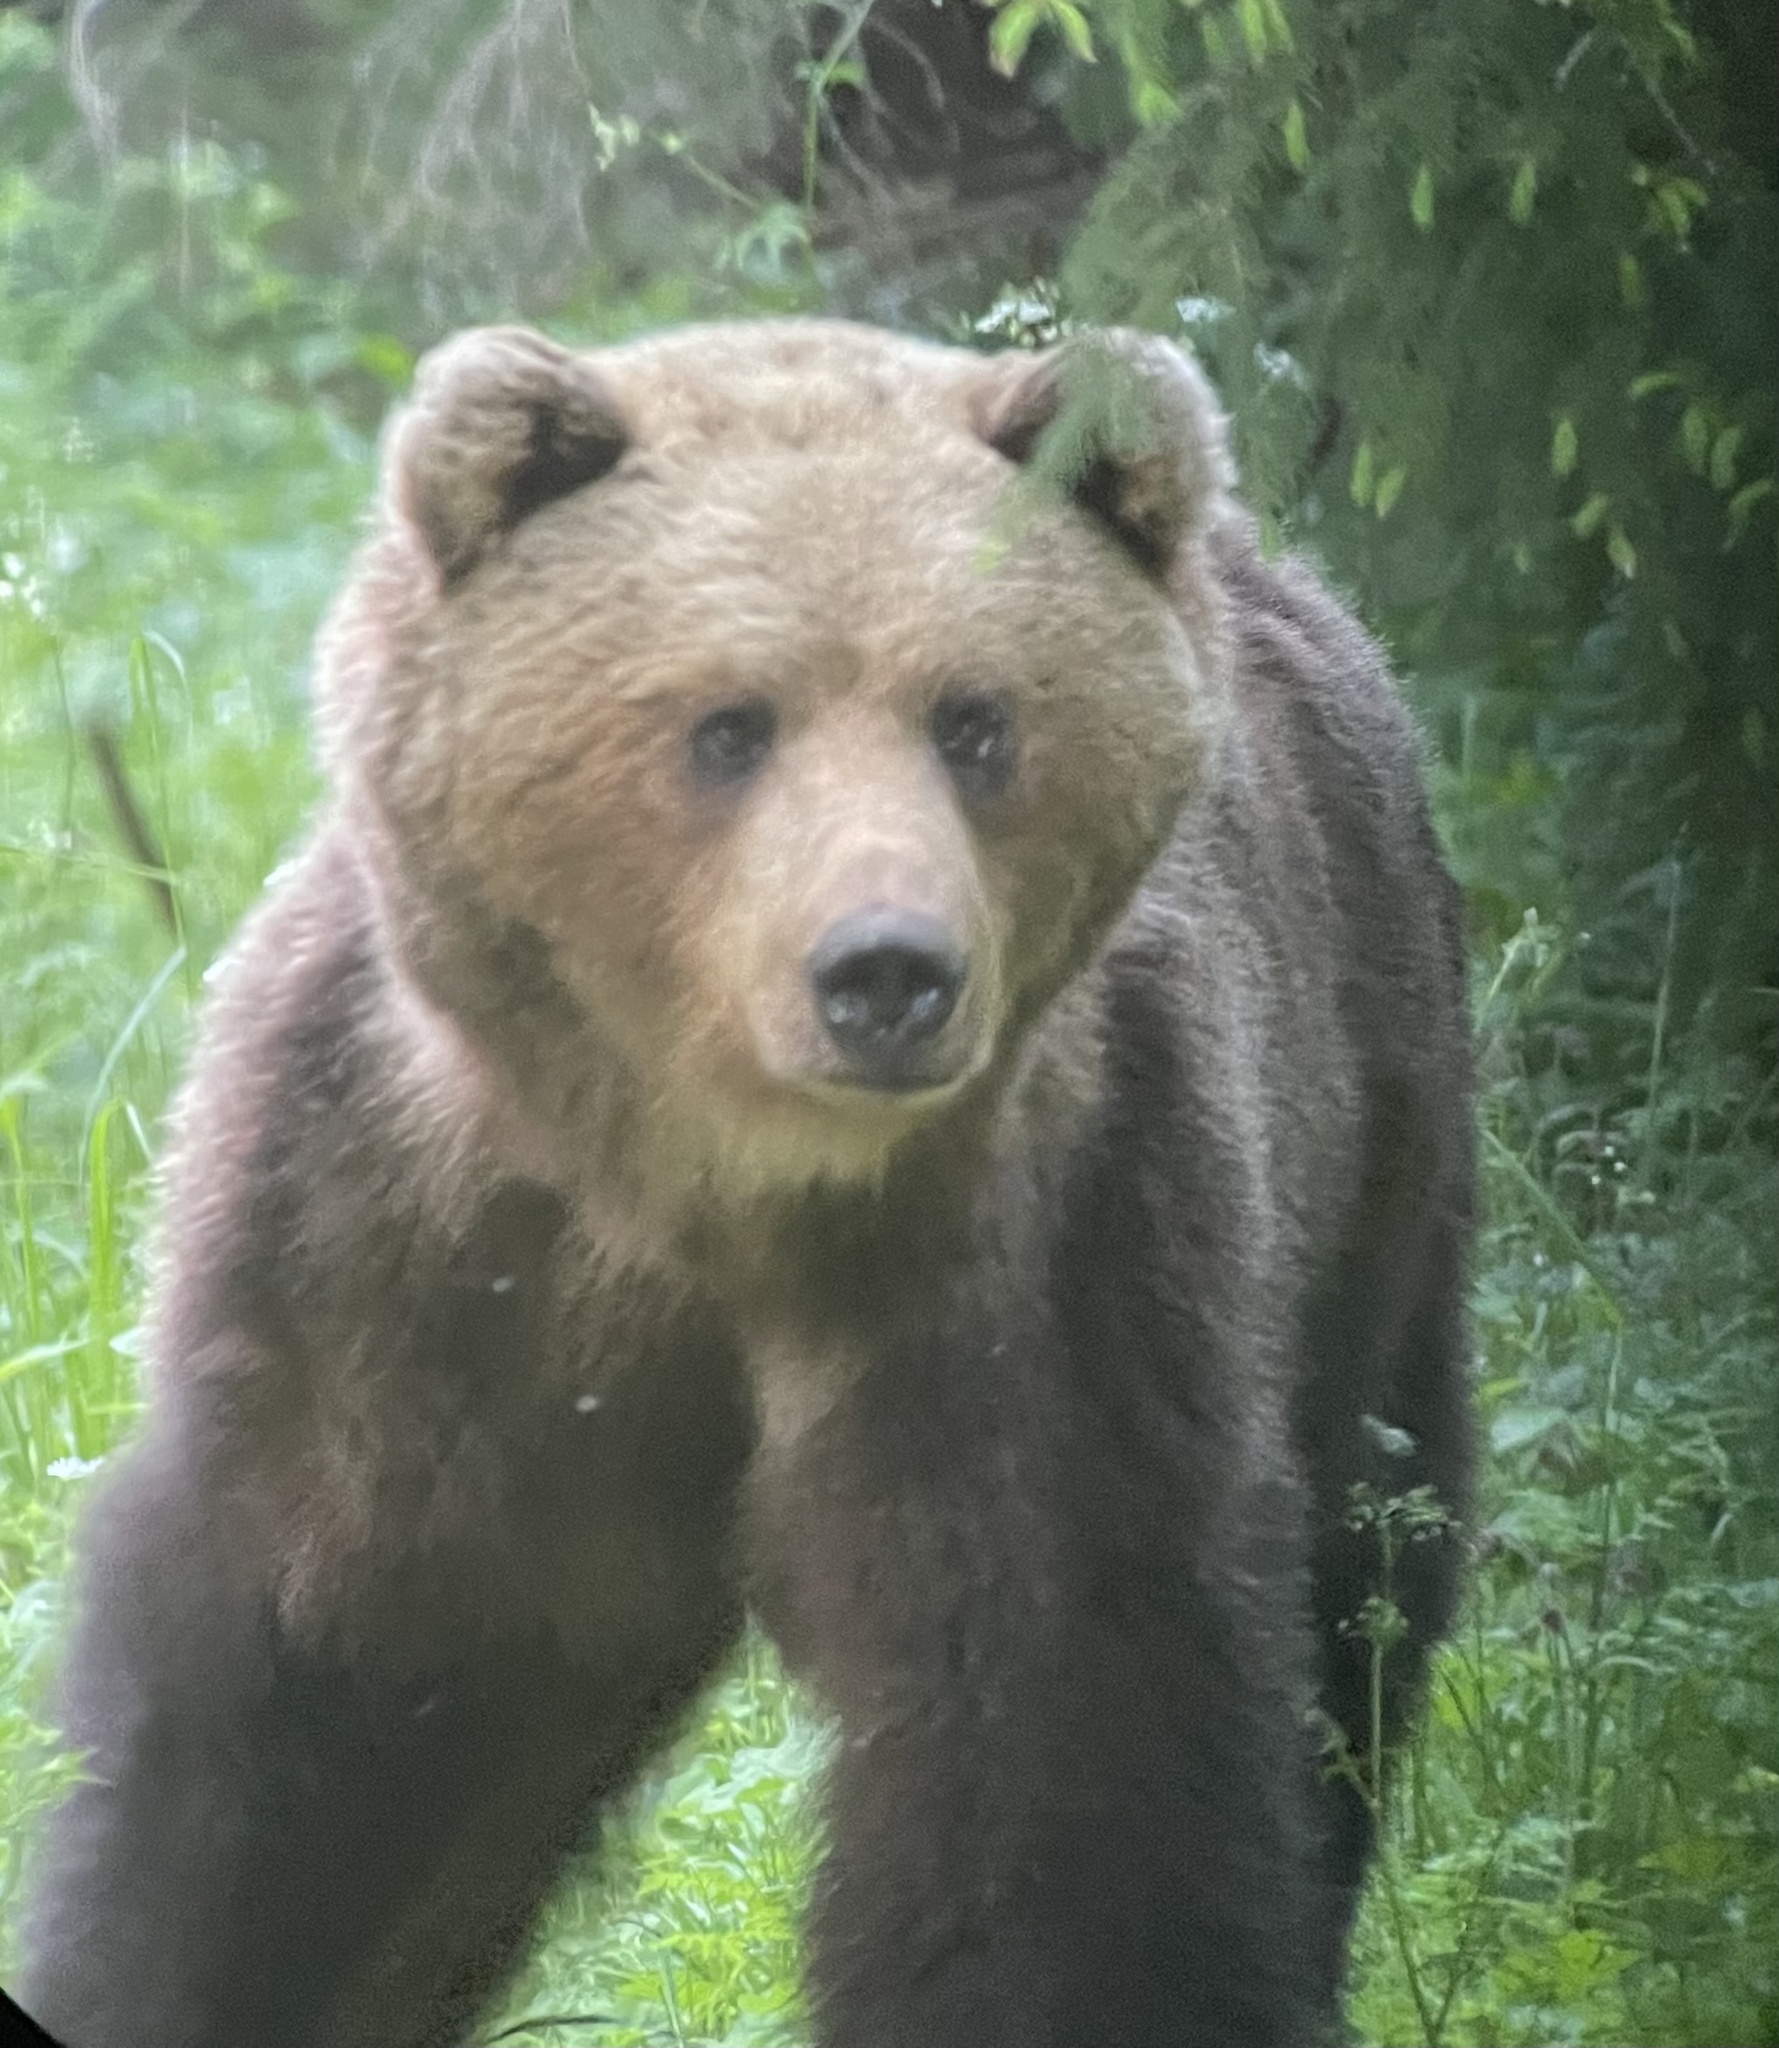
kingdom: Animalia
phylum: Chordata
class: Mammalia
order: Carnivora
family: Ursidae
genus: Ursus
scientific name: Ursus arctos
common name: Brown bear
